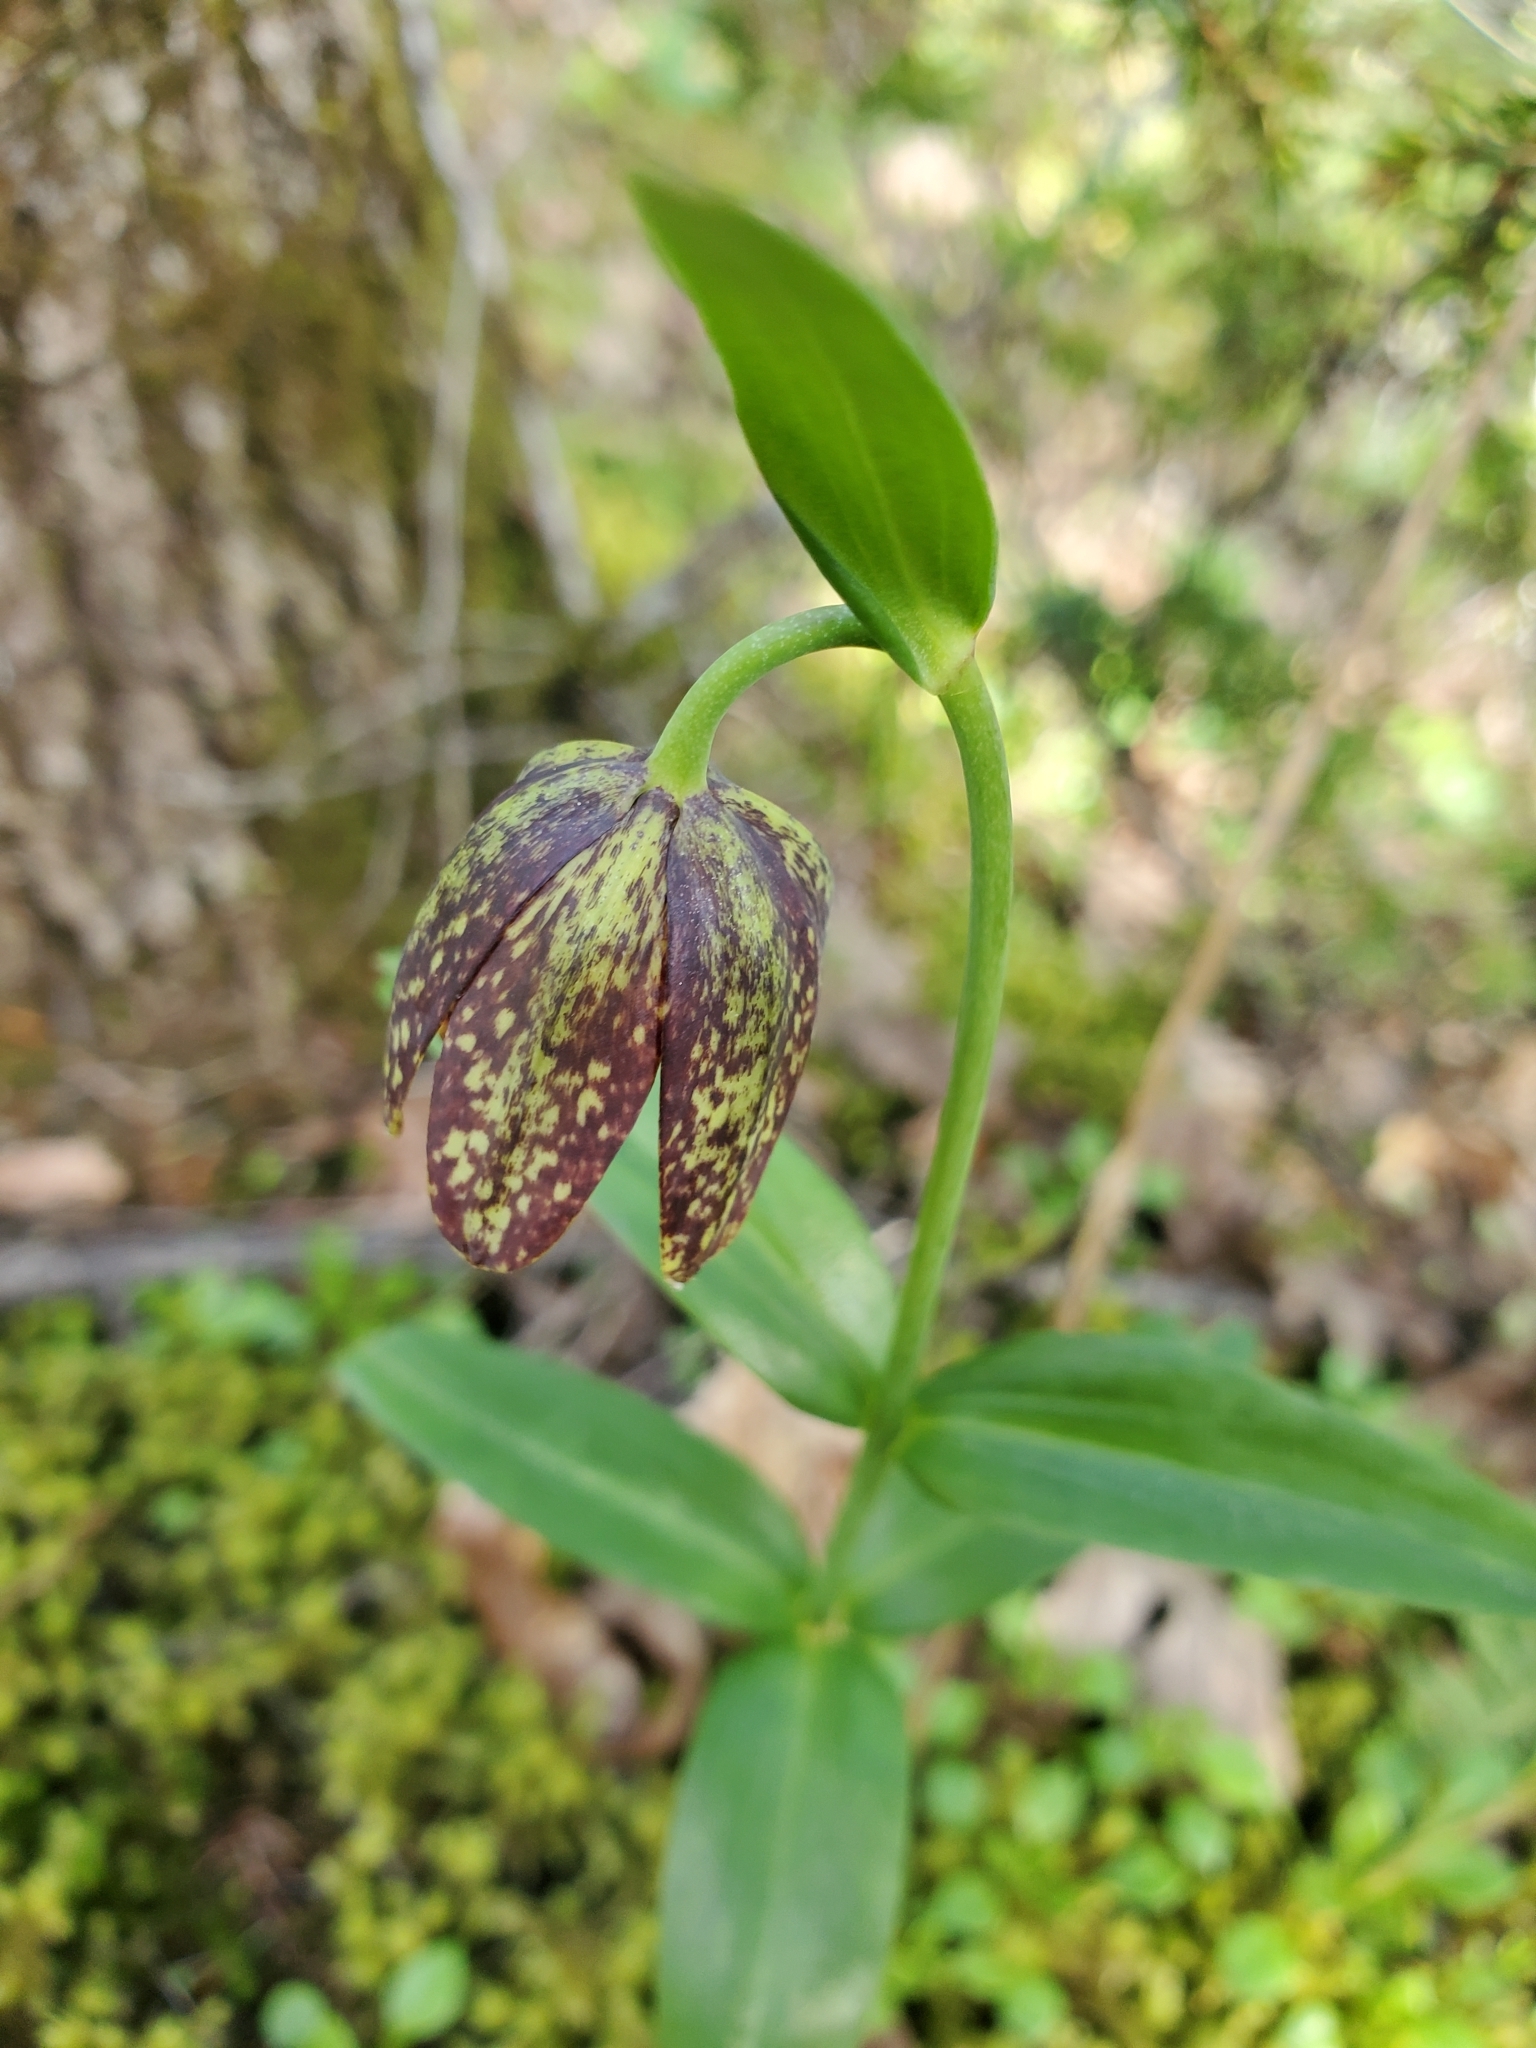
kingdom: Plantae
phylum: Tracheophyta
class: Liliopsida
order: Liliales
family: Liliaceae
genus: Fritillaria
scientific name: Fritillaria affinis
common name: Ojai fritillary
